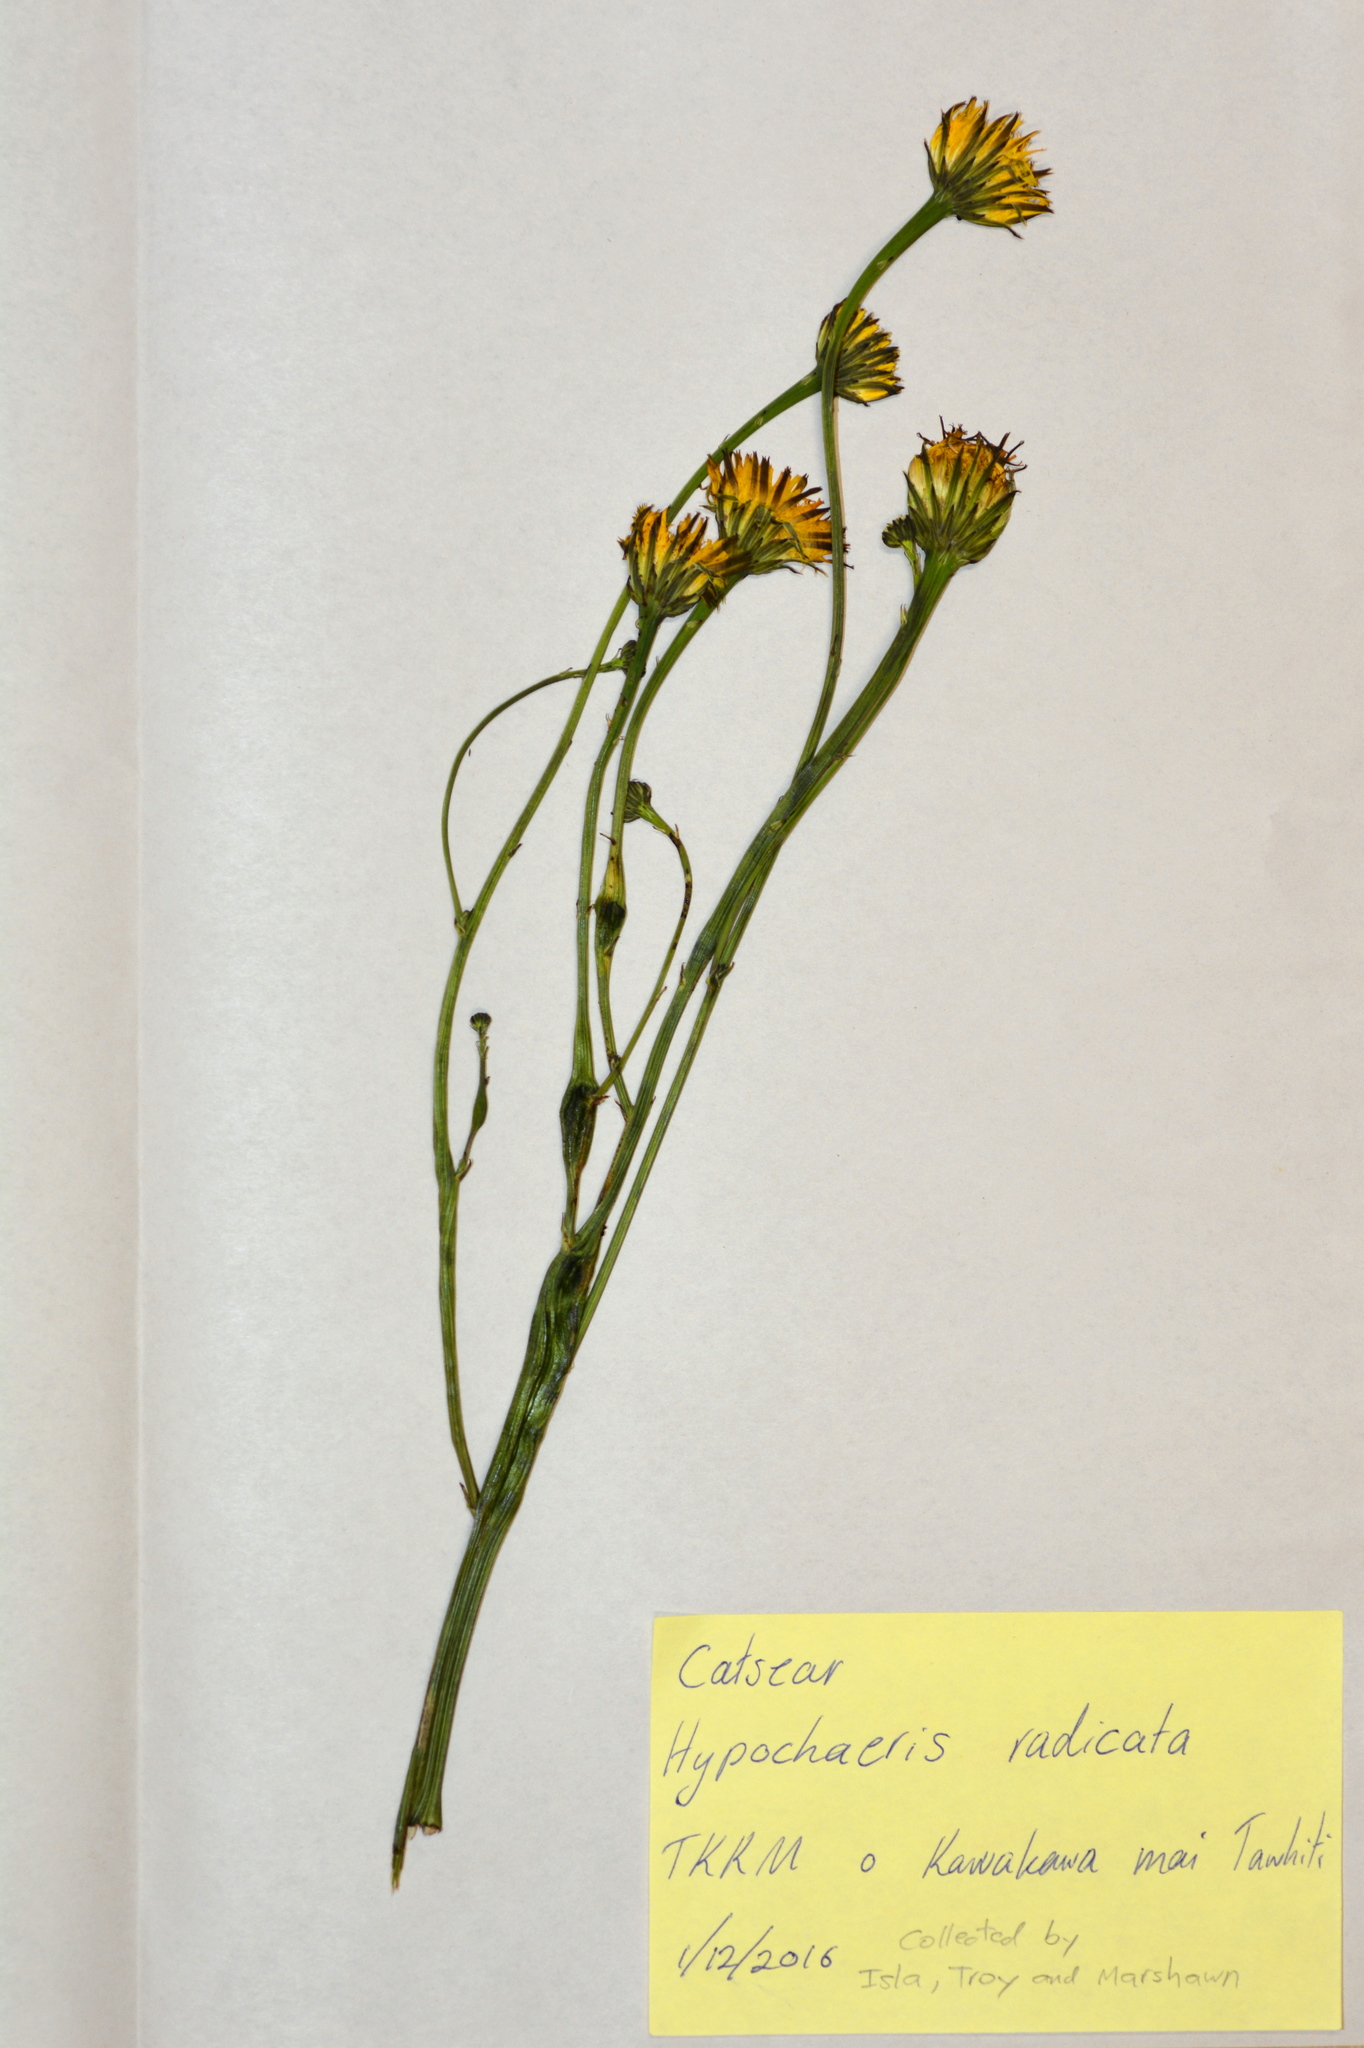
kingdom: Plantae
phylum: Tracheophyta
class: Magnoliopsida
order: Asterales
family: Asteraceae
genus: Hypochaeris
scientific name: Hypochaeris radicata
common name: Flatweed
